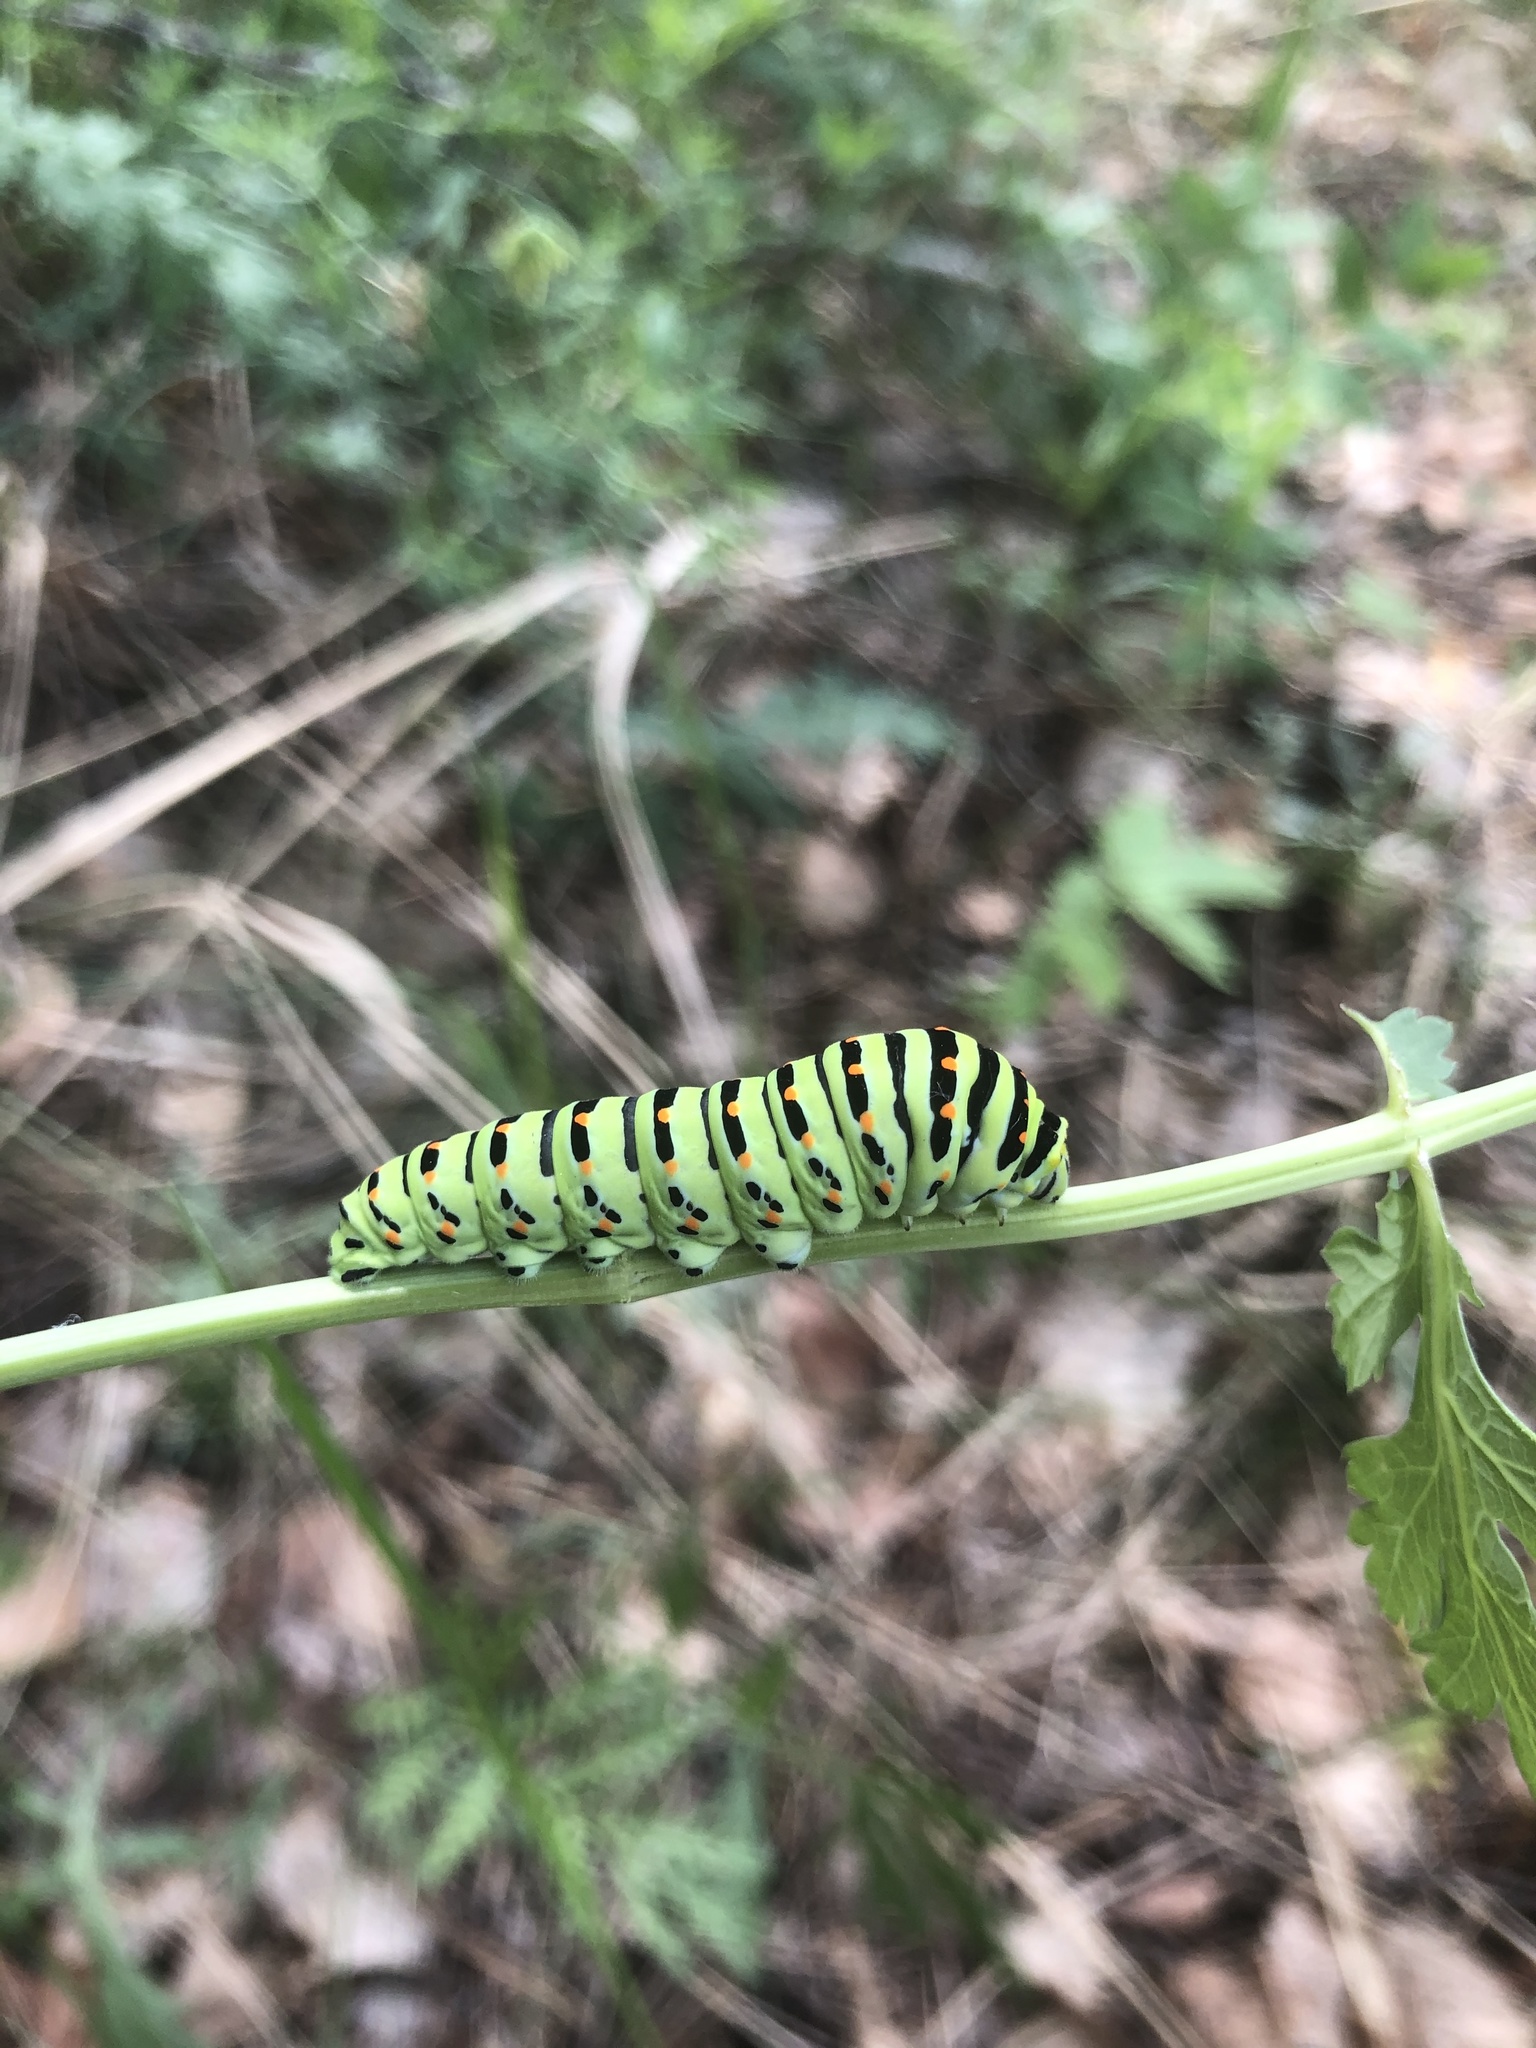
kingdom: Animalia
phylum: Arthropoda
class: Insecta
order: Lepidoptera
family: Papilionidae
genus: Papilio
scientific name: Papilio machaon
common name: Swallowtail
